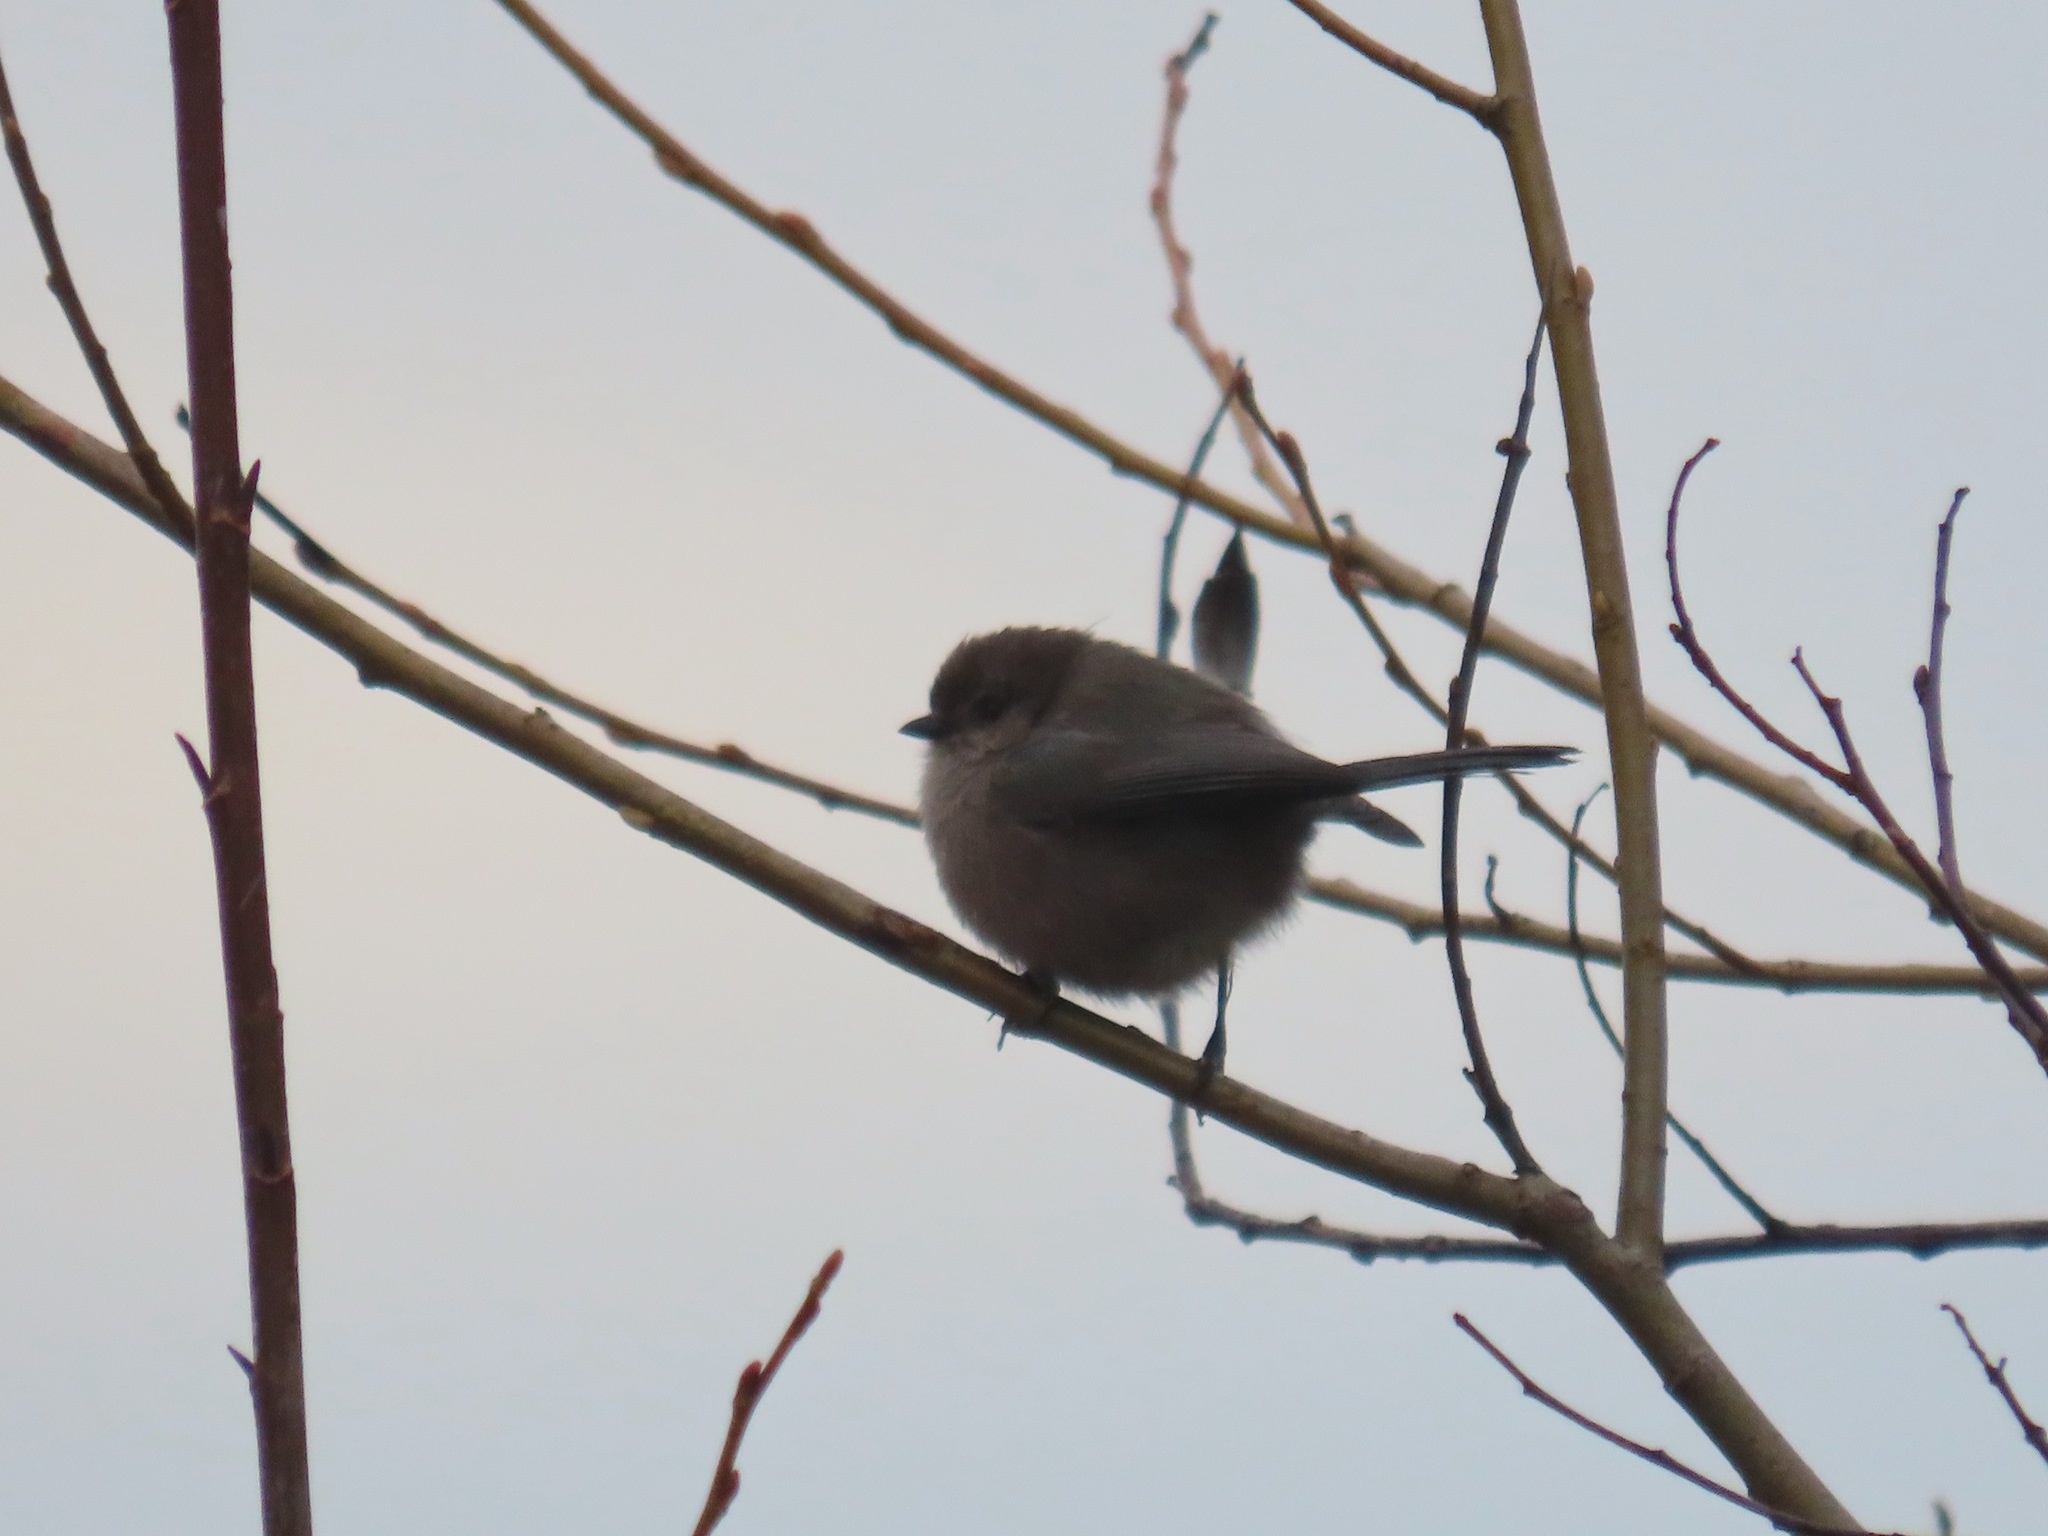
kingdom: Animalia
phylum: Chordata
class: Aves
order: Passeriformes
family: Aegithalidae
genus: Psaltriparus
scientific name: Psaltriparus minimus
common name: American bushtit
